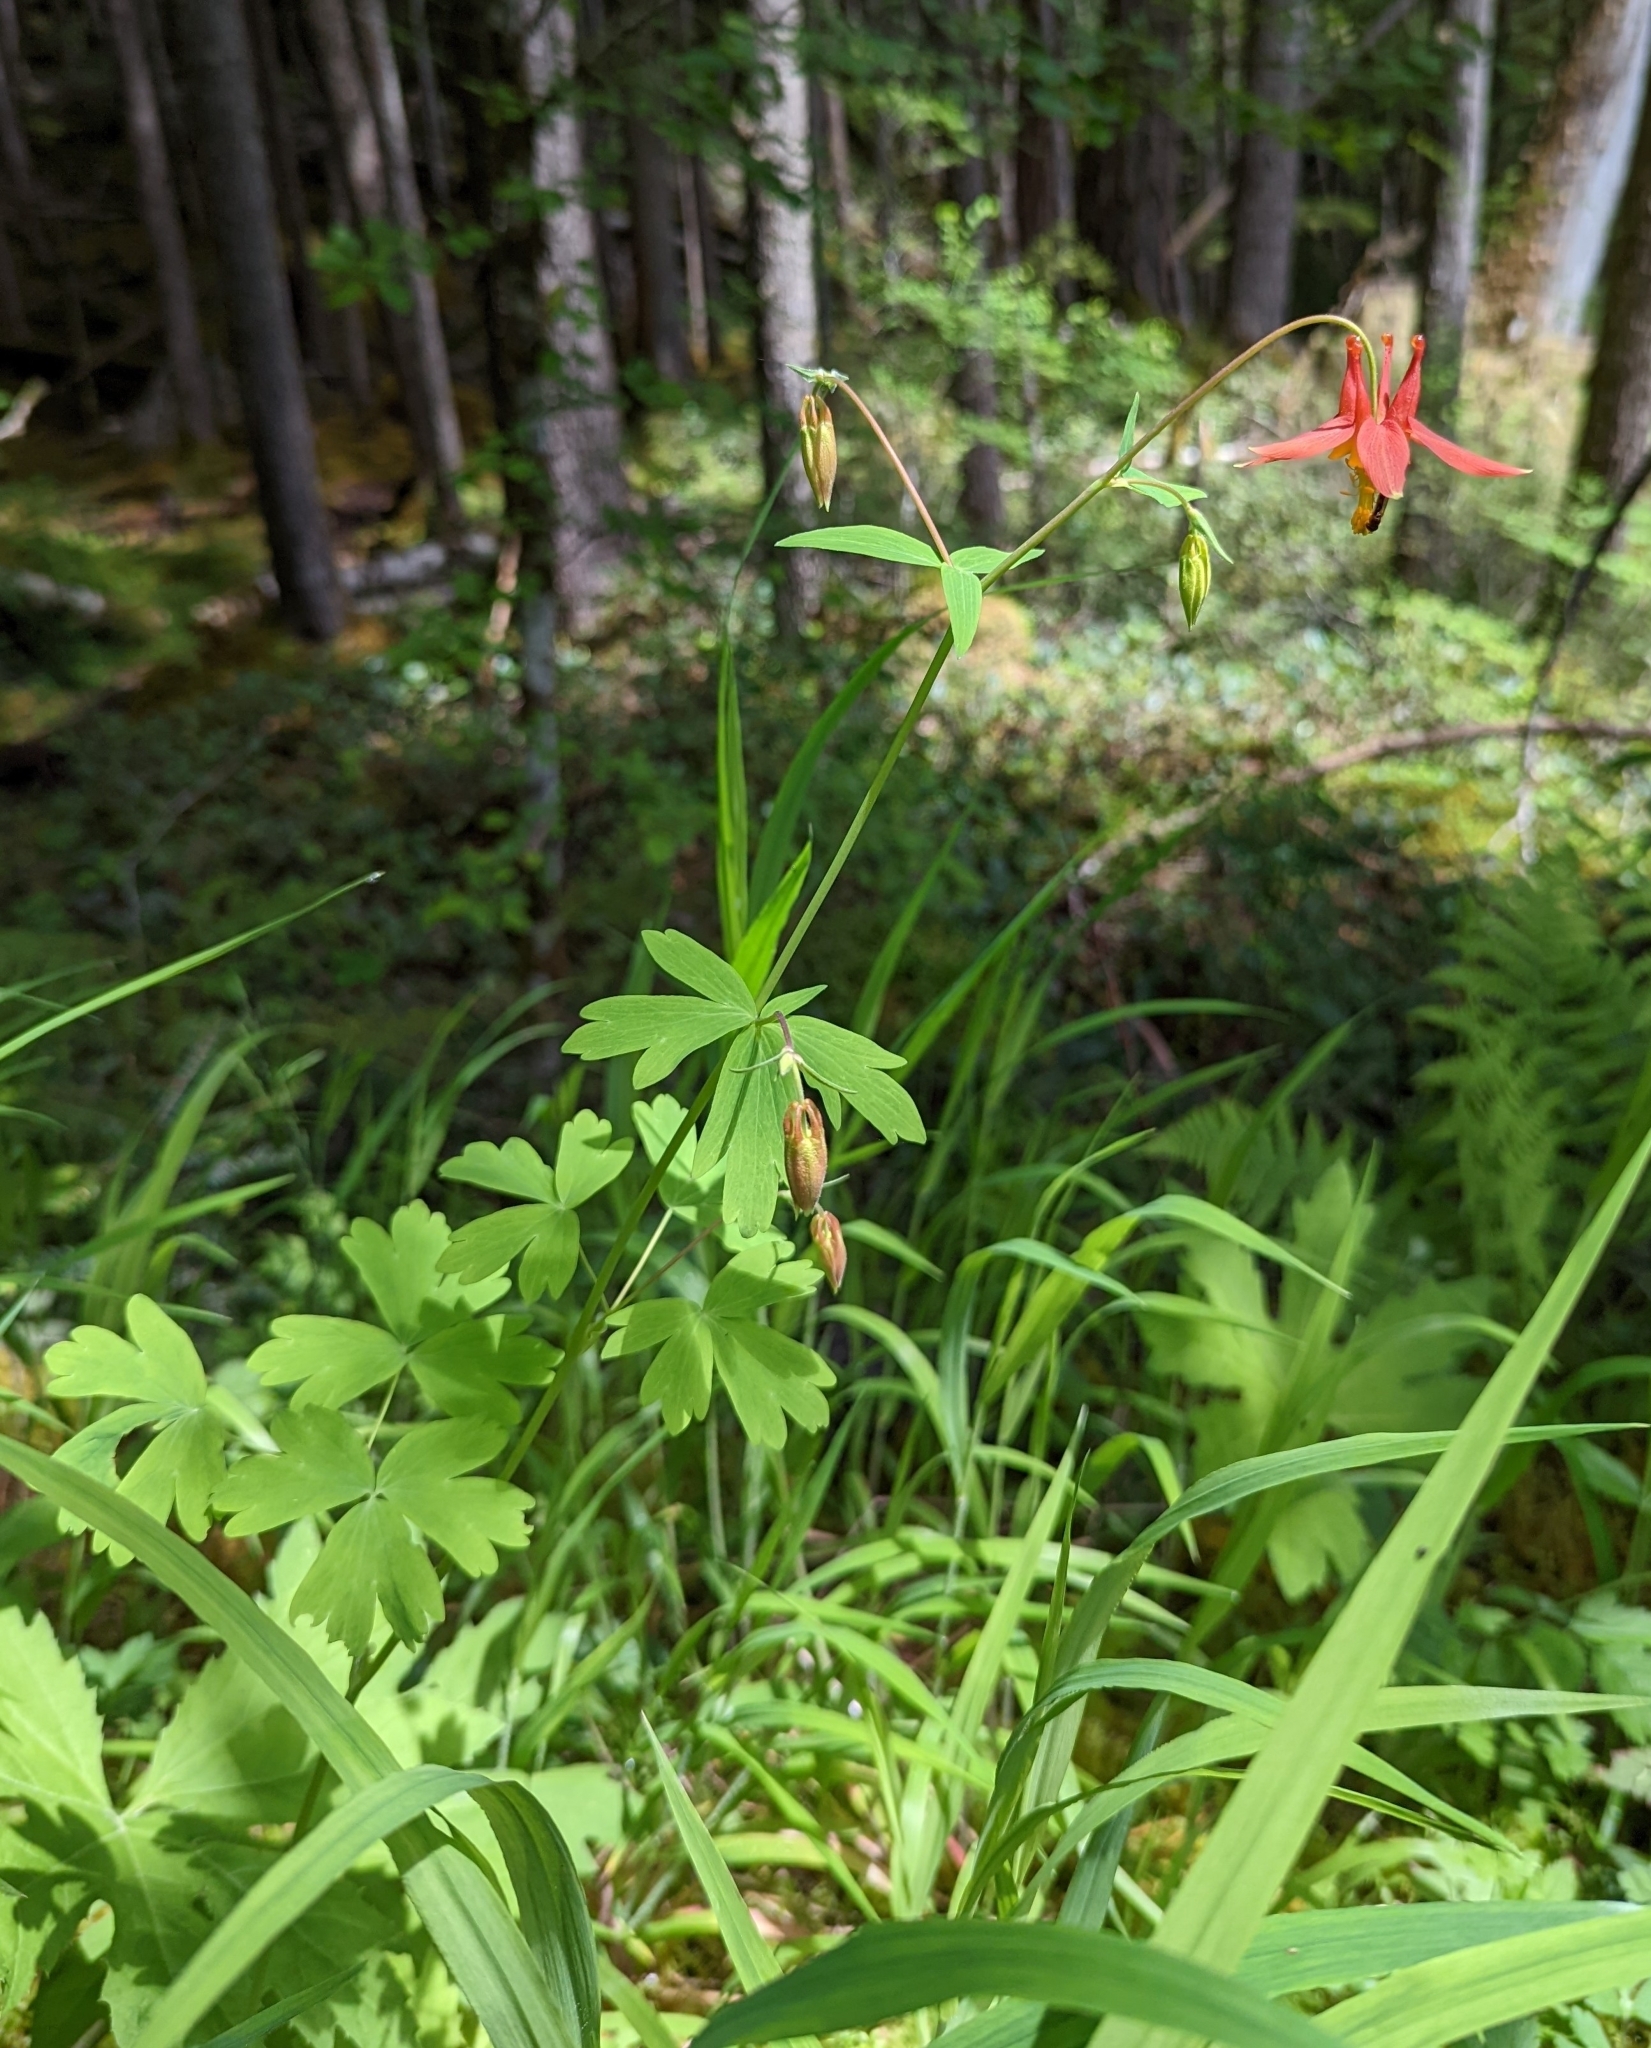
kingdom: Plantae
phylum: Tracheophyta
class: Magnoliopsida
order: Ranunculales
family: Ranunculaceae
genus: Aquilegia
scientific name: Aquilegia formosa
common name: Sitka columbine
